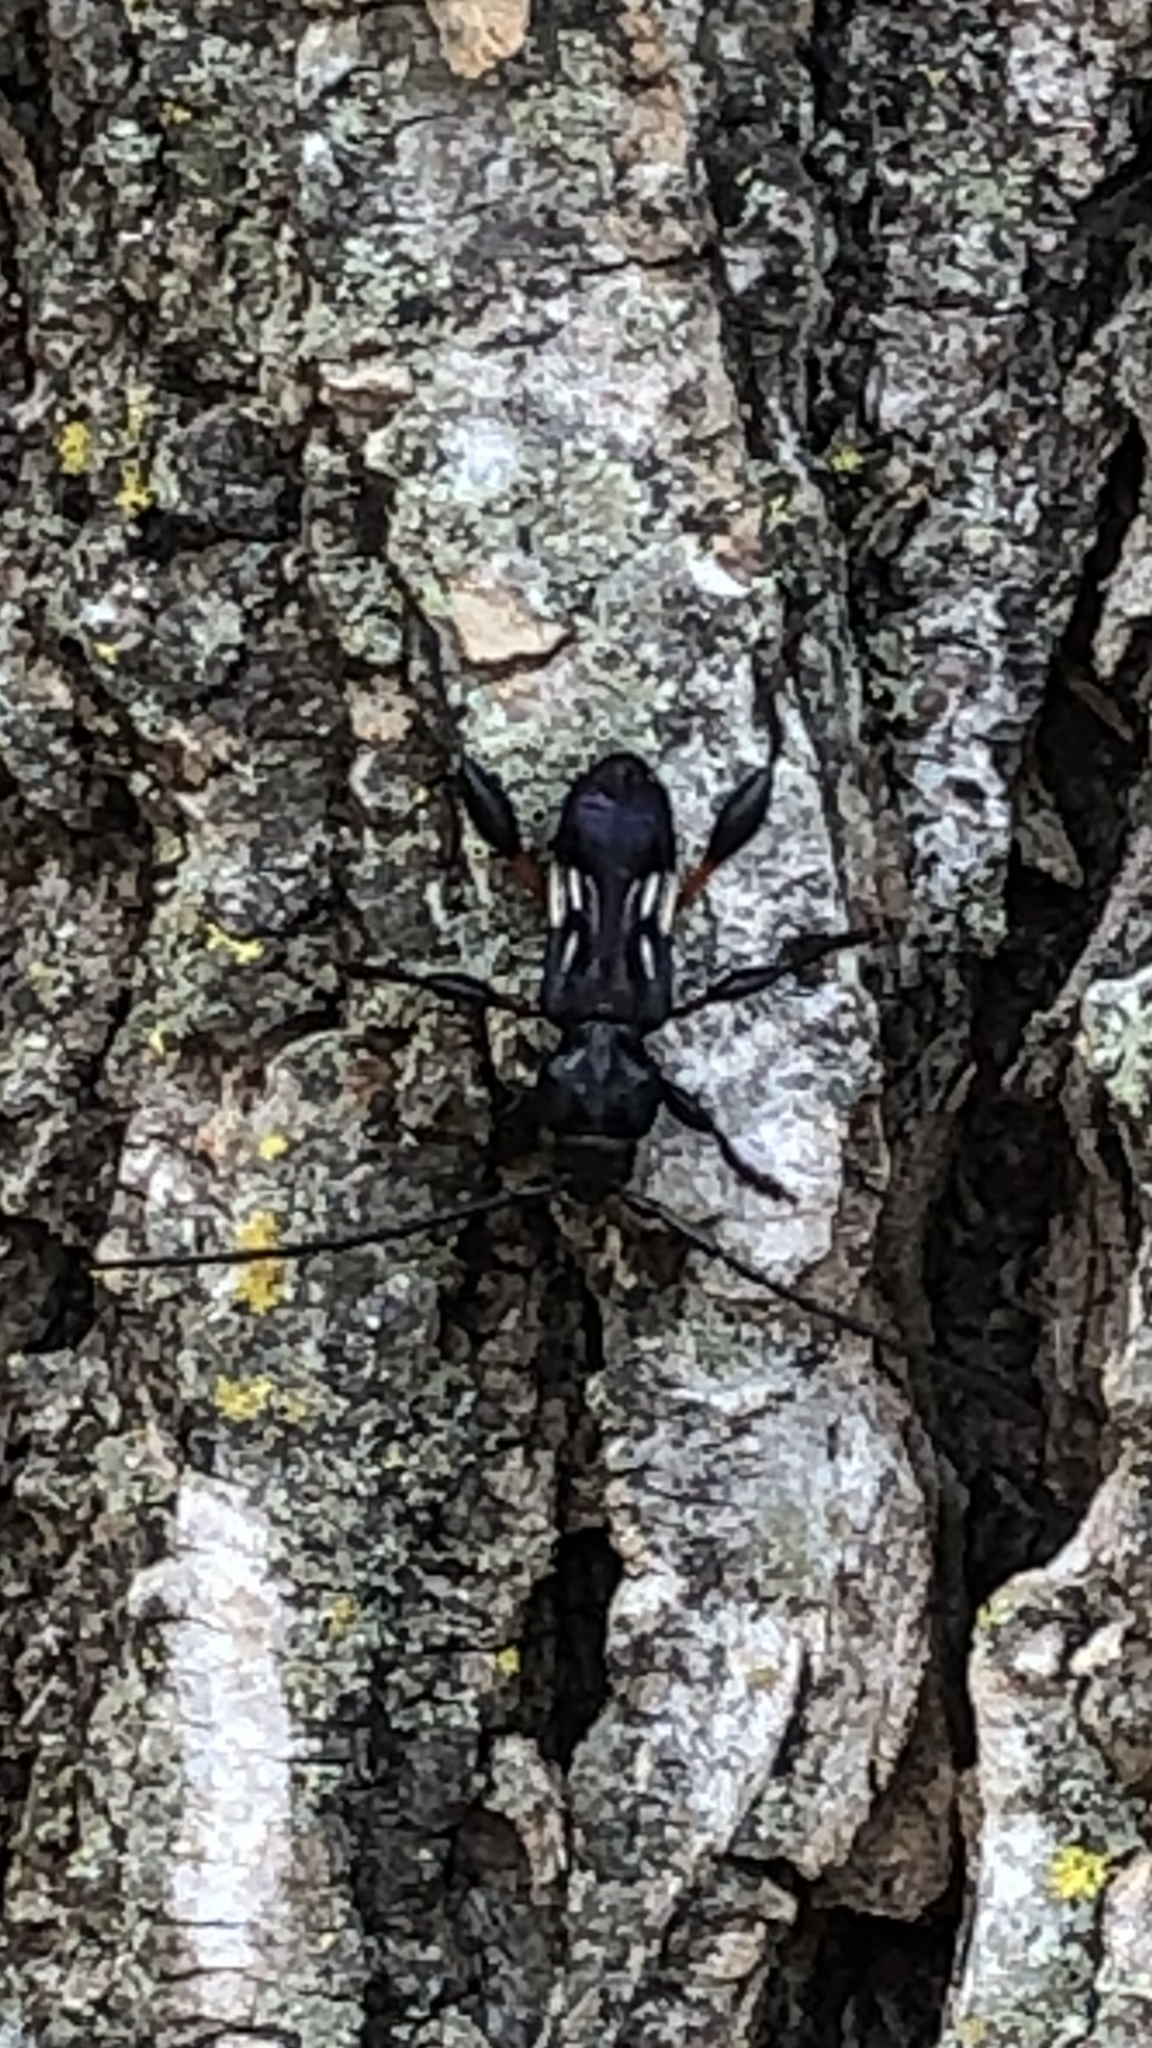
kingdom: Animalia
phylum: Arthropoda
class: Insecta
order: Coleoptera
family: Cerambycidae
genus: Physocnemum
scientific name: Physocnemum brevilineum
